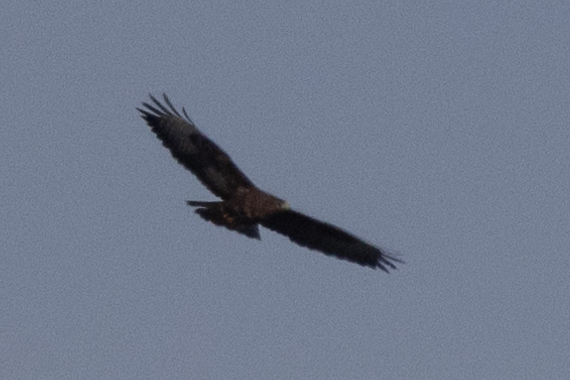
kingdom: Animalia
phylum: Chordata
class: Aves
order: Accipitriformes
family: Accipitridae
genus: Buteo
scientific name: Buteo buteo
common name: Common buzzard
